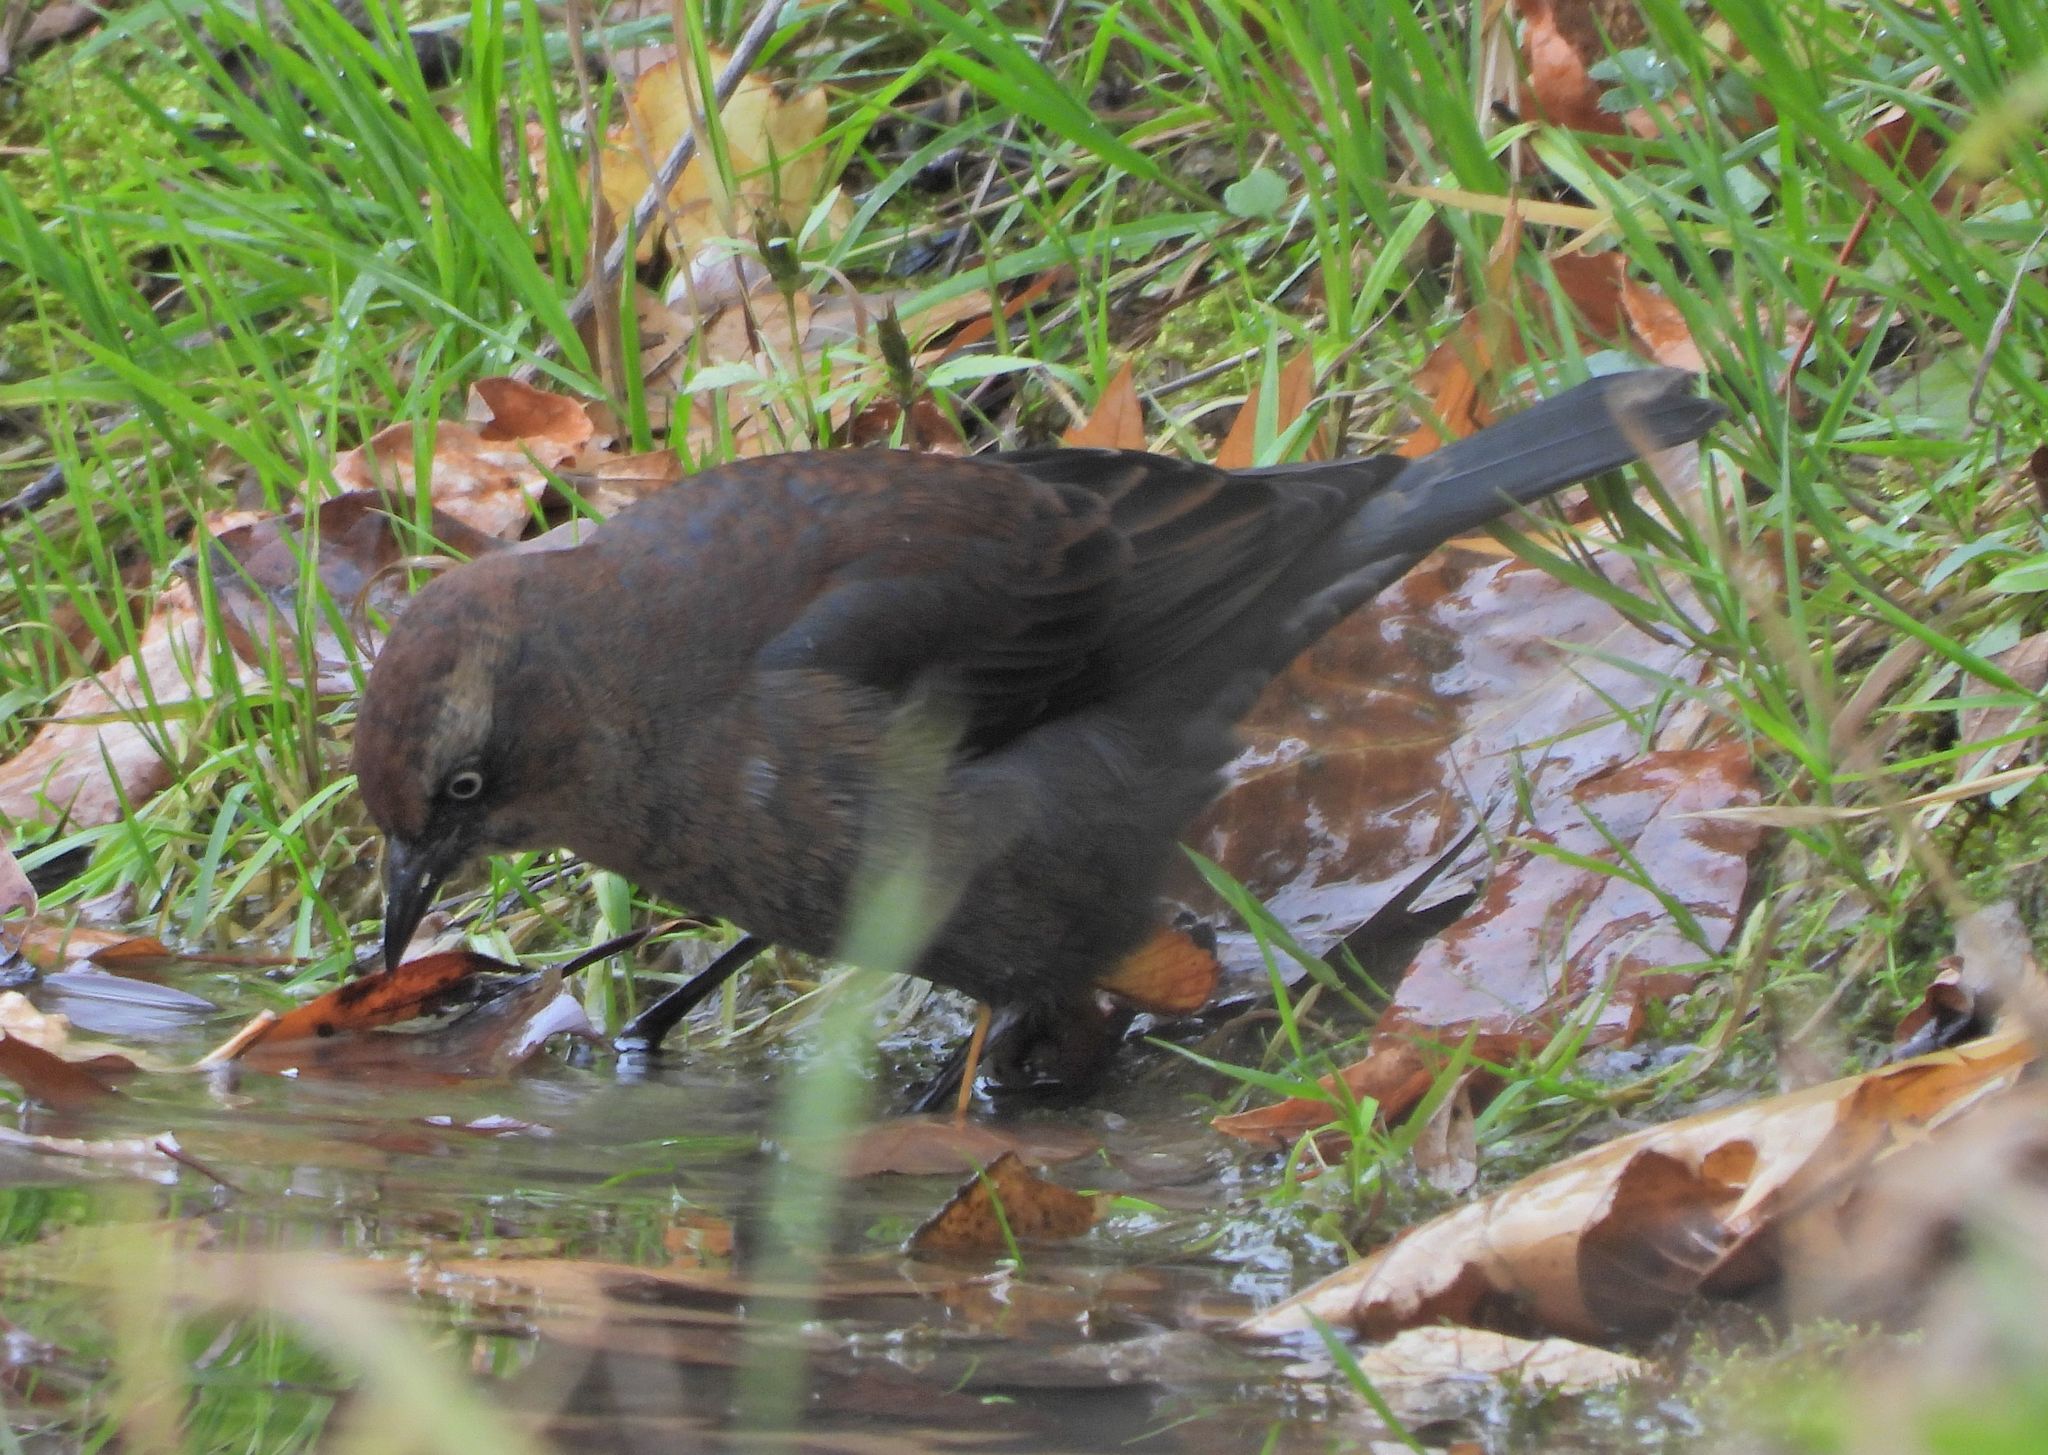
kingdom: Animalia
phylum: Chordata
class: Aves
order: Passeriformes
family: Icteridae
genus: Euphagus
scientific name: Euphagus carolinus
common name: Rusty blackbird
